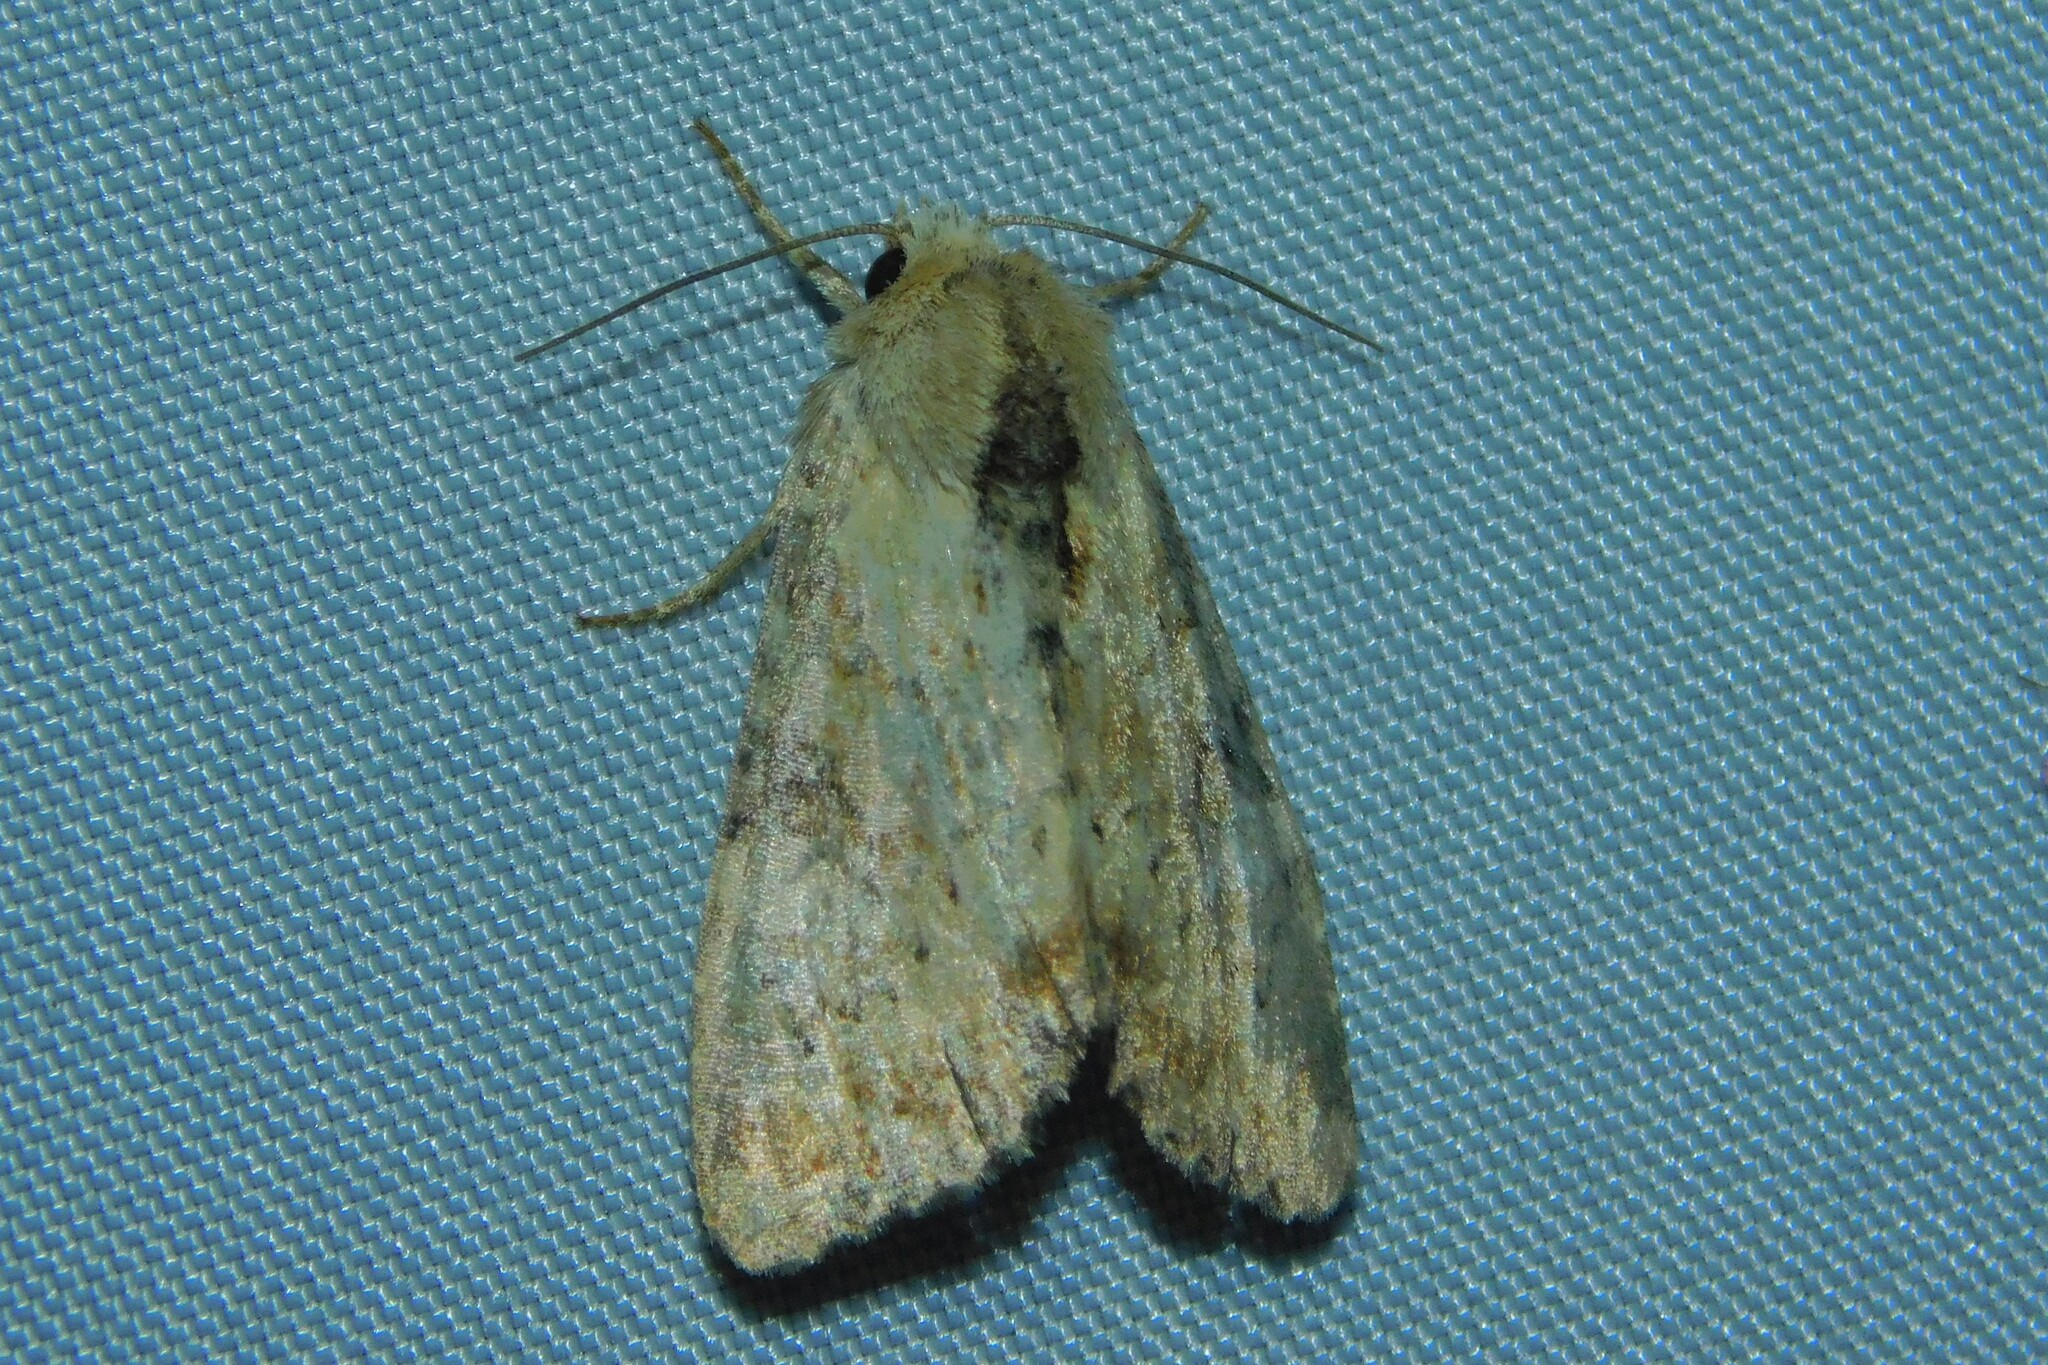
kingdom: Animalia
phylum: Arthropoda
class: Insecta
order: Lepidoptera
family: Noctuidae
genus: Loscopia
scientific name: Loscopia scolopacina
